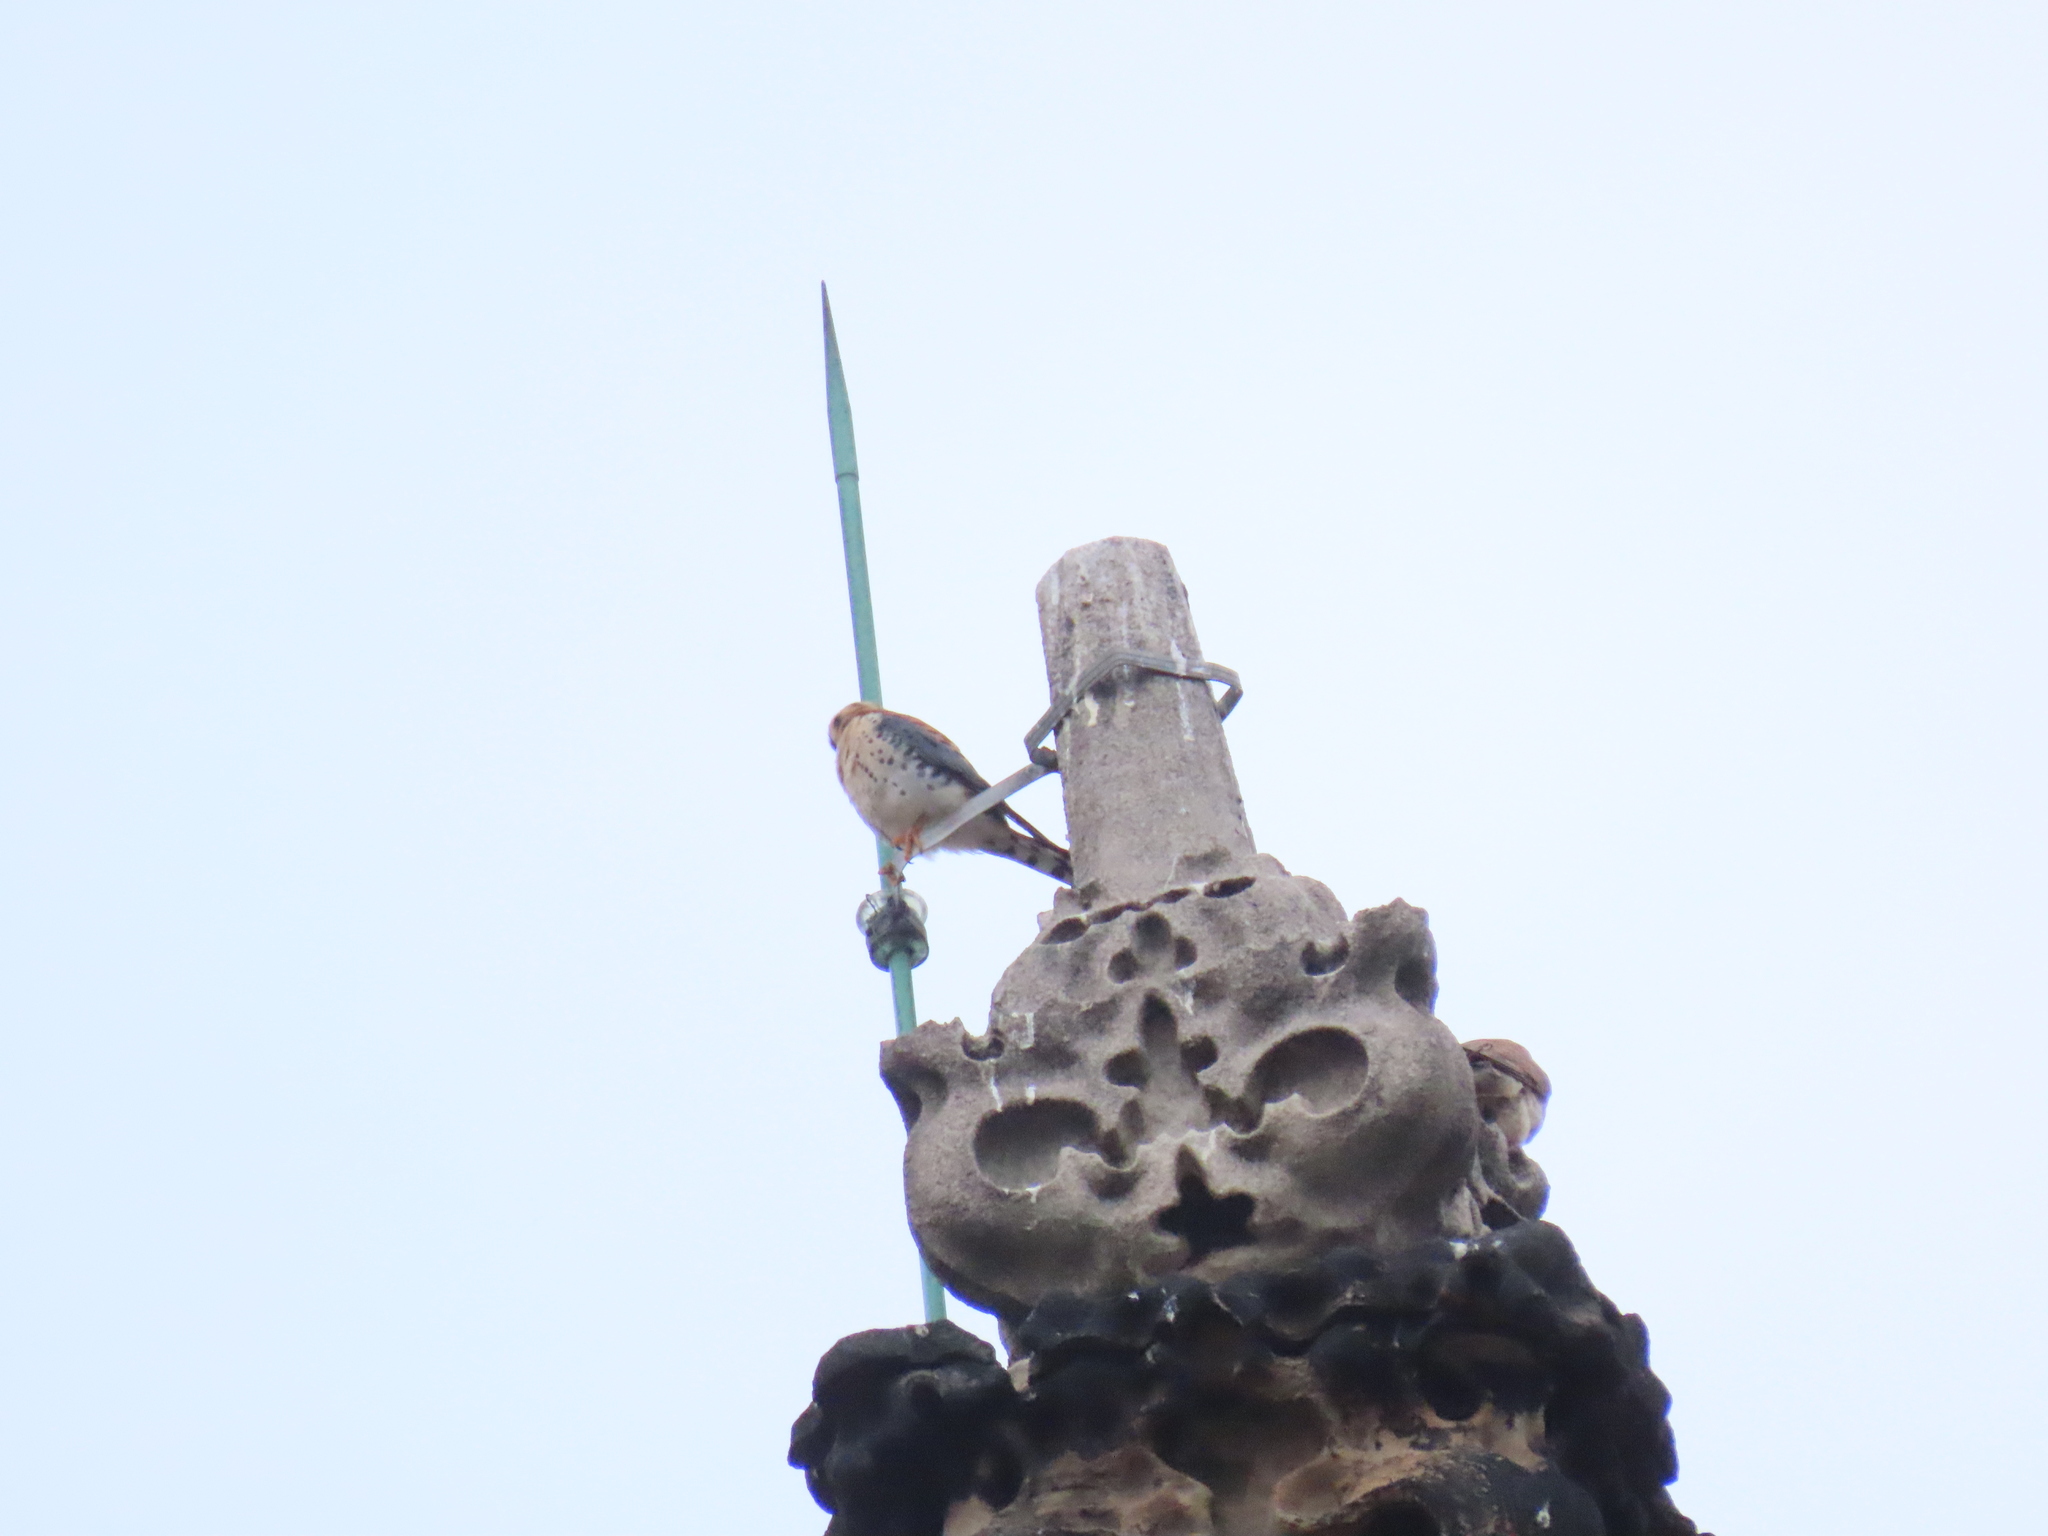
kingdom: Animalia
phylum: Chordata
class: Aves
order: Falconiformes
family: Falconidae
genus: Falco
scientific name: Falco sparverius
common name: American kestrel
